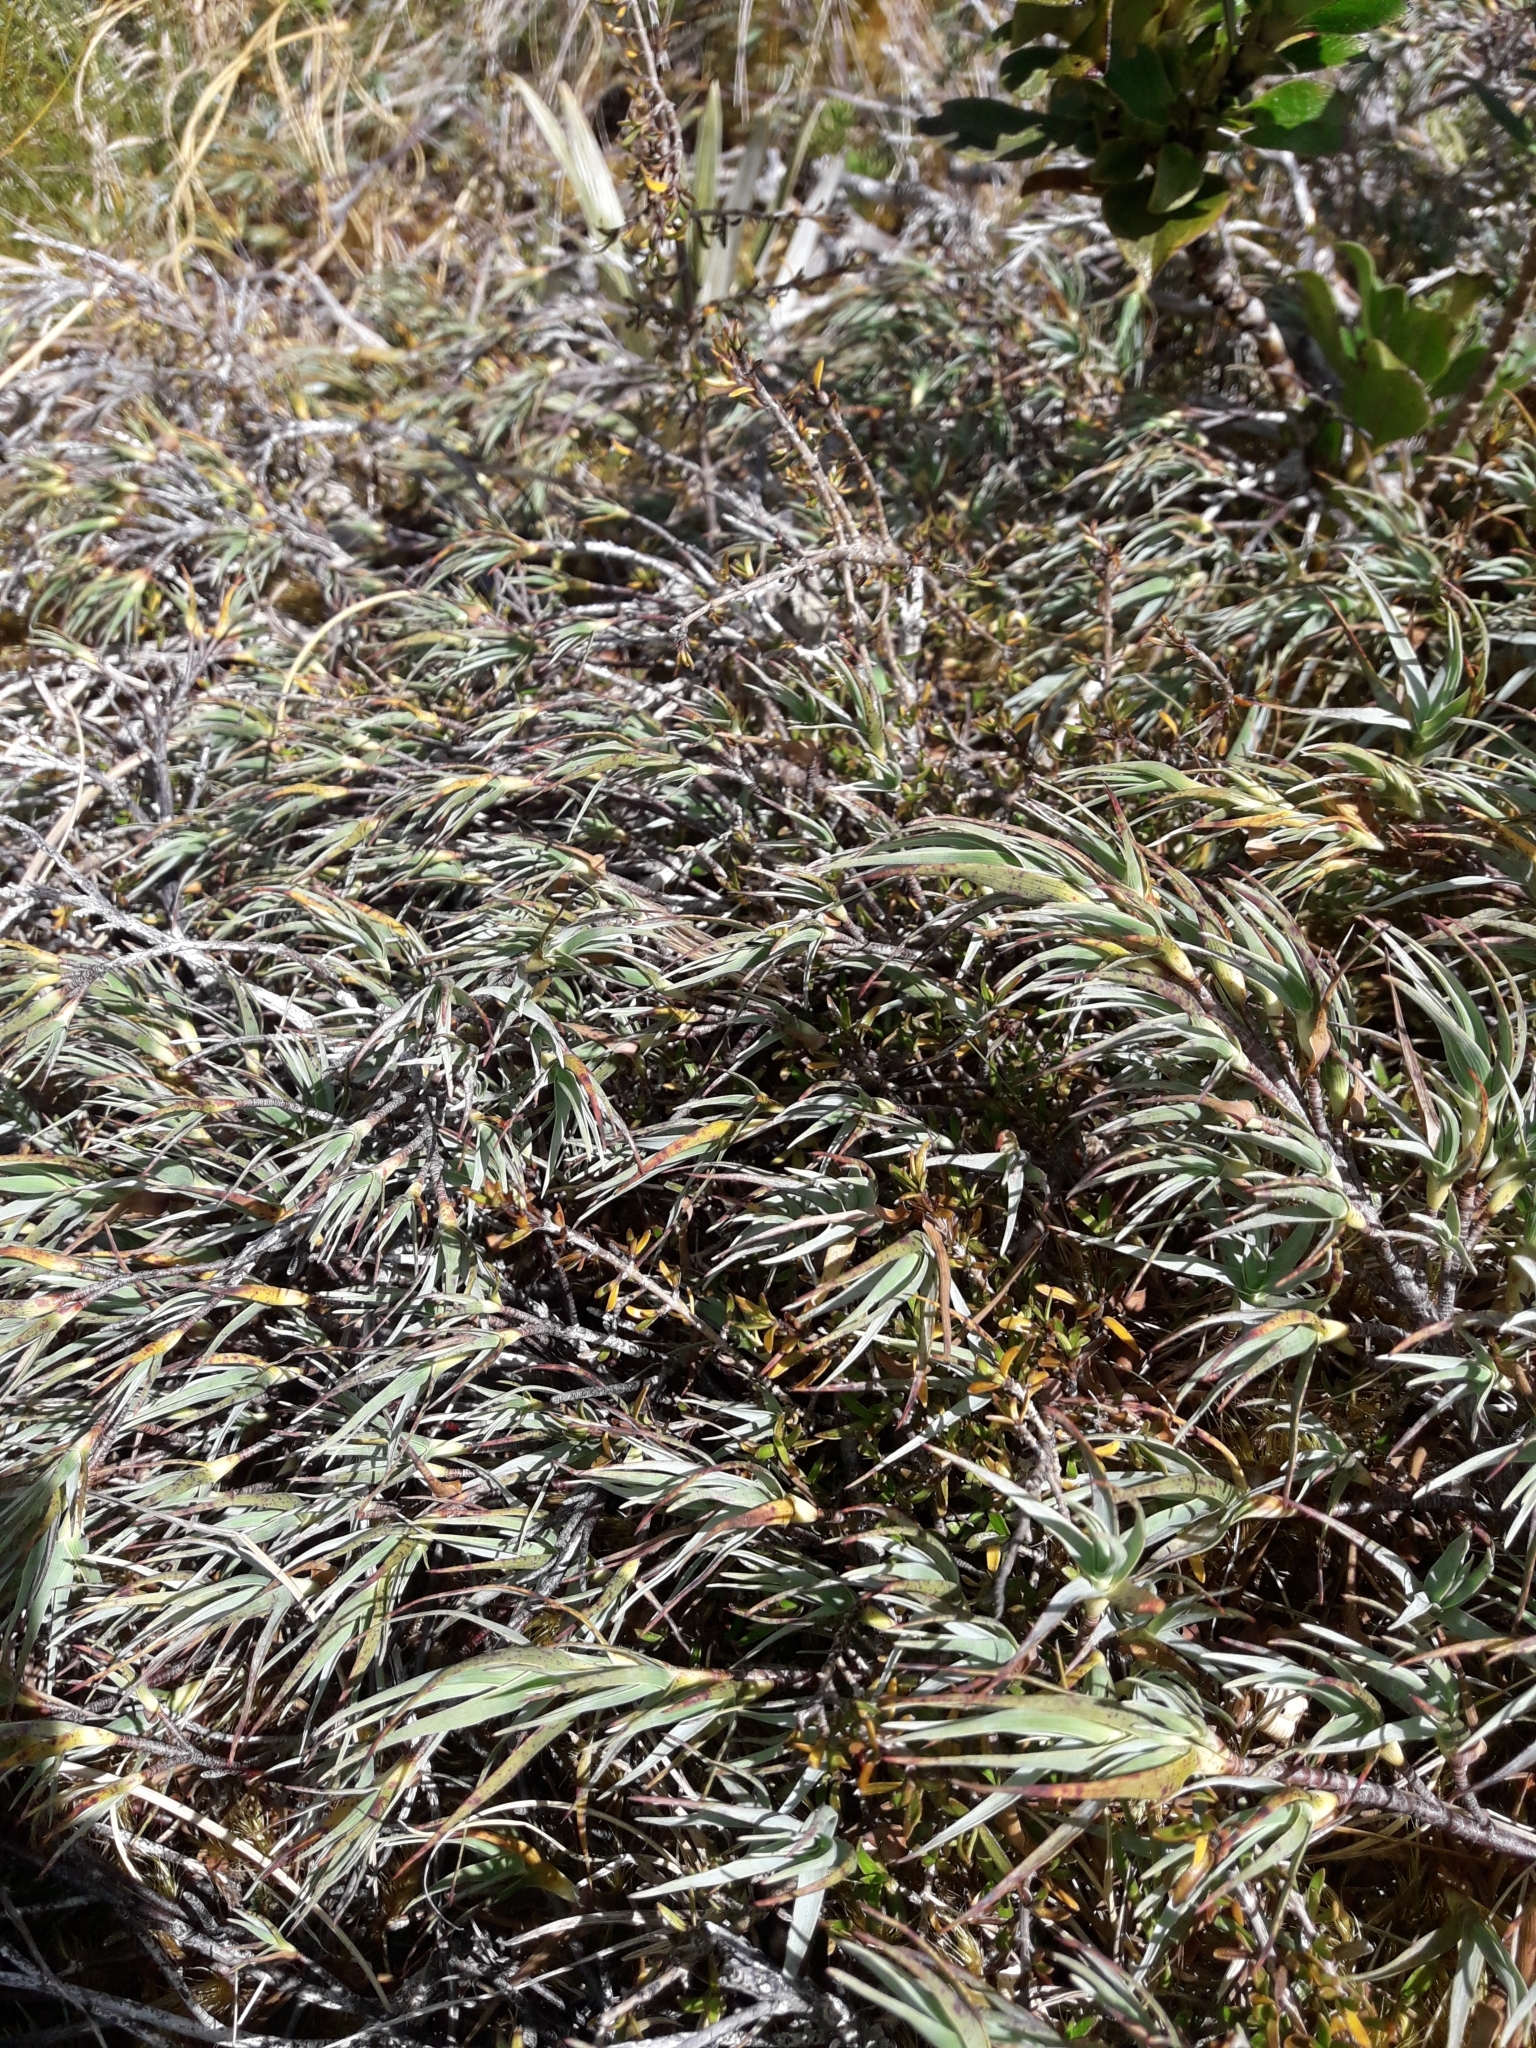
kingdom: Plantae
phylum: Tracheophyta
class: Magnoliopsida
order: Ericales
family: Ericaceae
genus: Dracophyllum
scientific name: Dracophyllum kirkii
